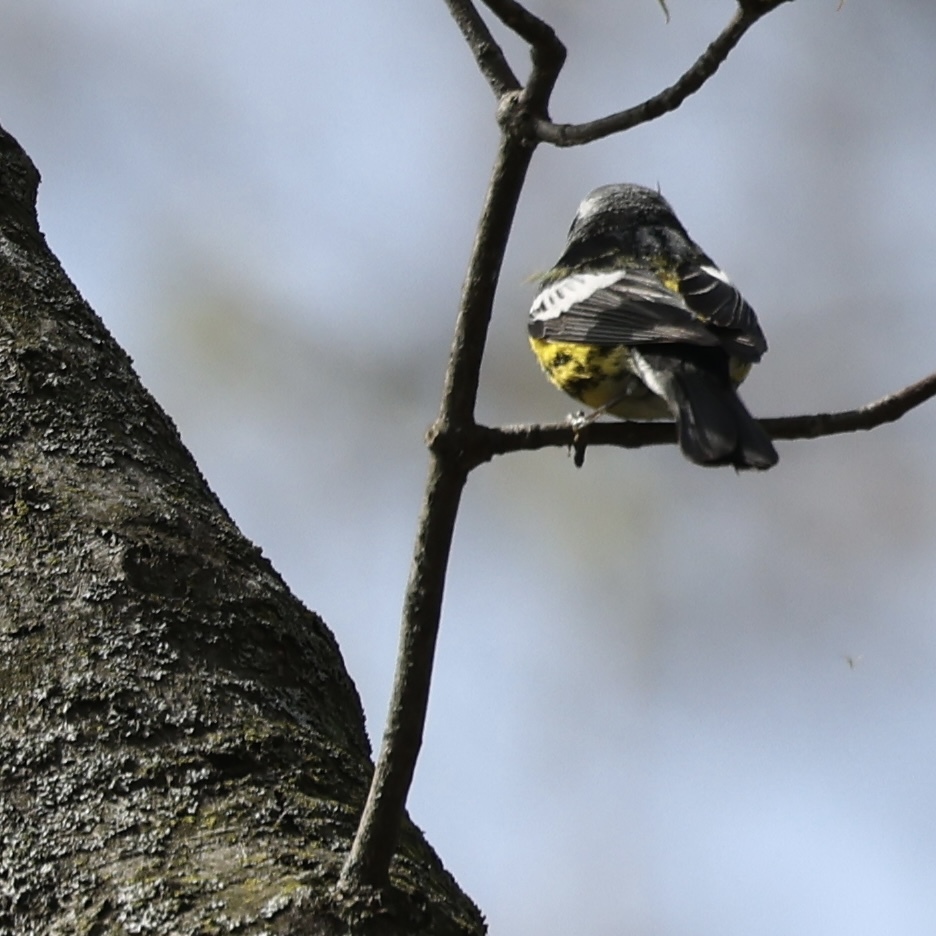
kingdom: Animalia
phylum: Chordata
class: Aves
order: Passeriformes
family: Parulidae
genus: Setophaga
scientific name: Setophaga magnolia
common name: Magnolia warbler
